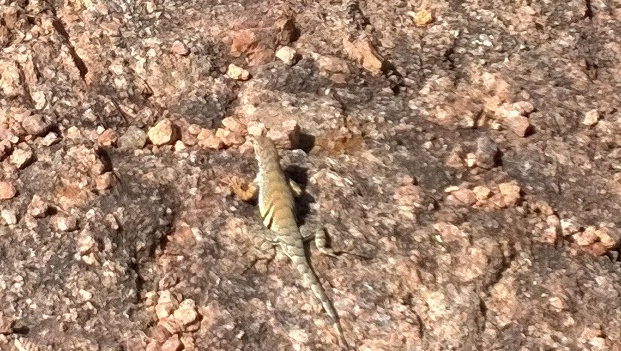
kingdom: Animalia
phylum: Chordata
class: Squamata
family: Phrynosomatidae
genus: Cophosaurus
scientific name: Cophosaurus texanus
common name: Greater earless lizard
